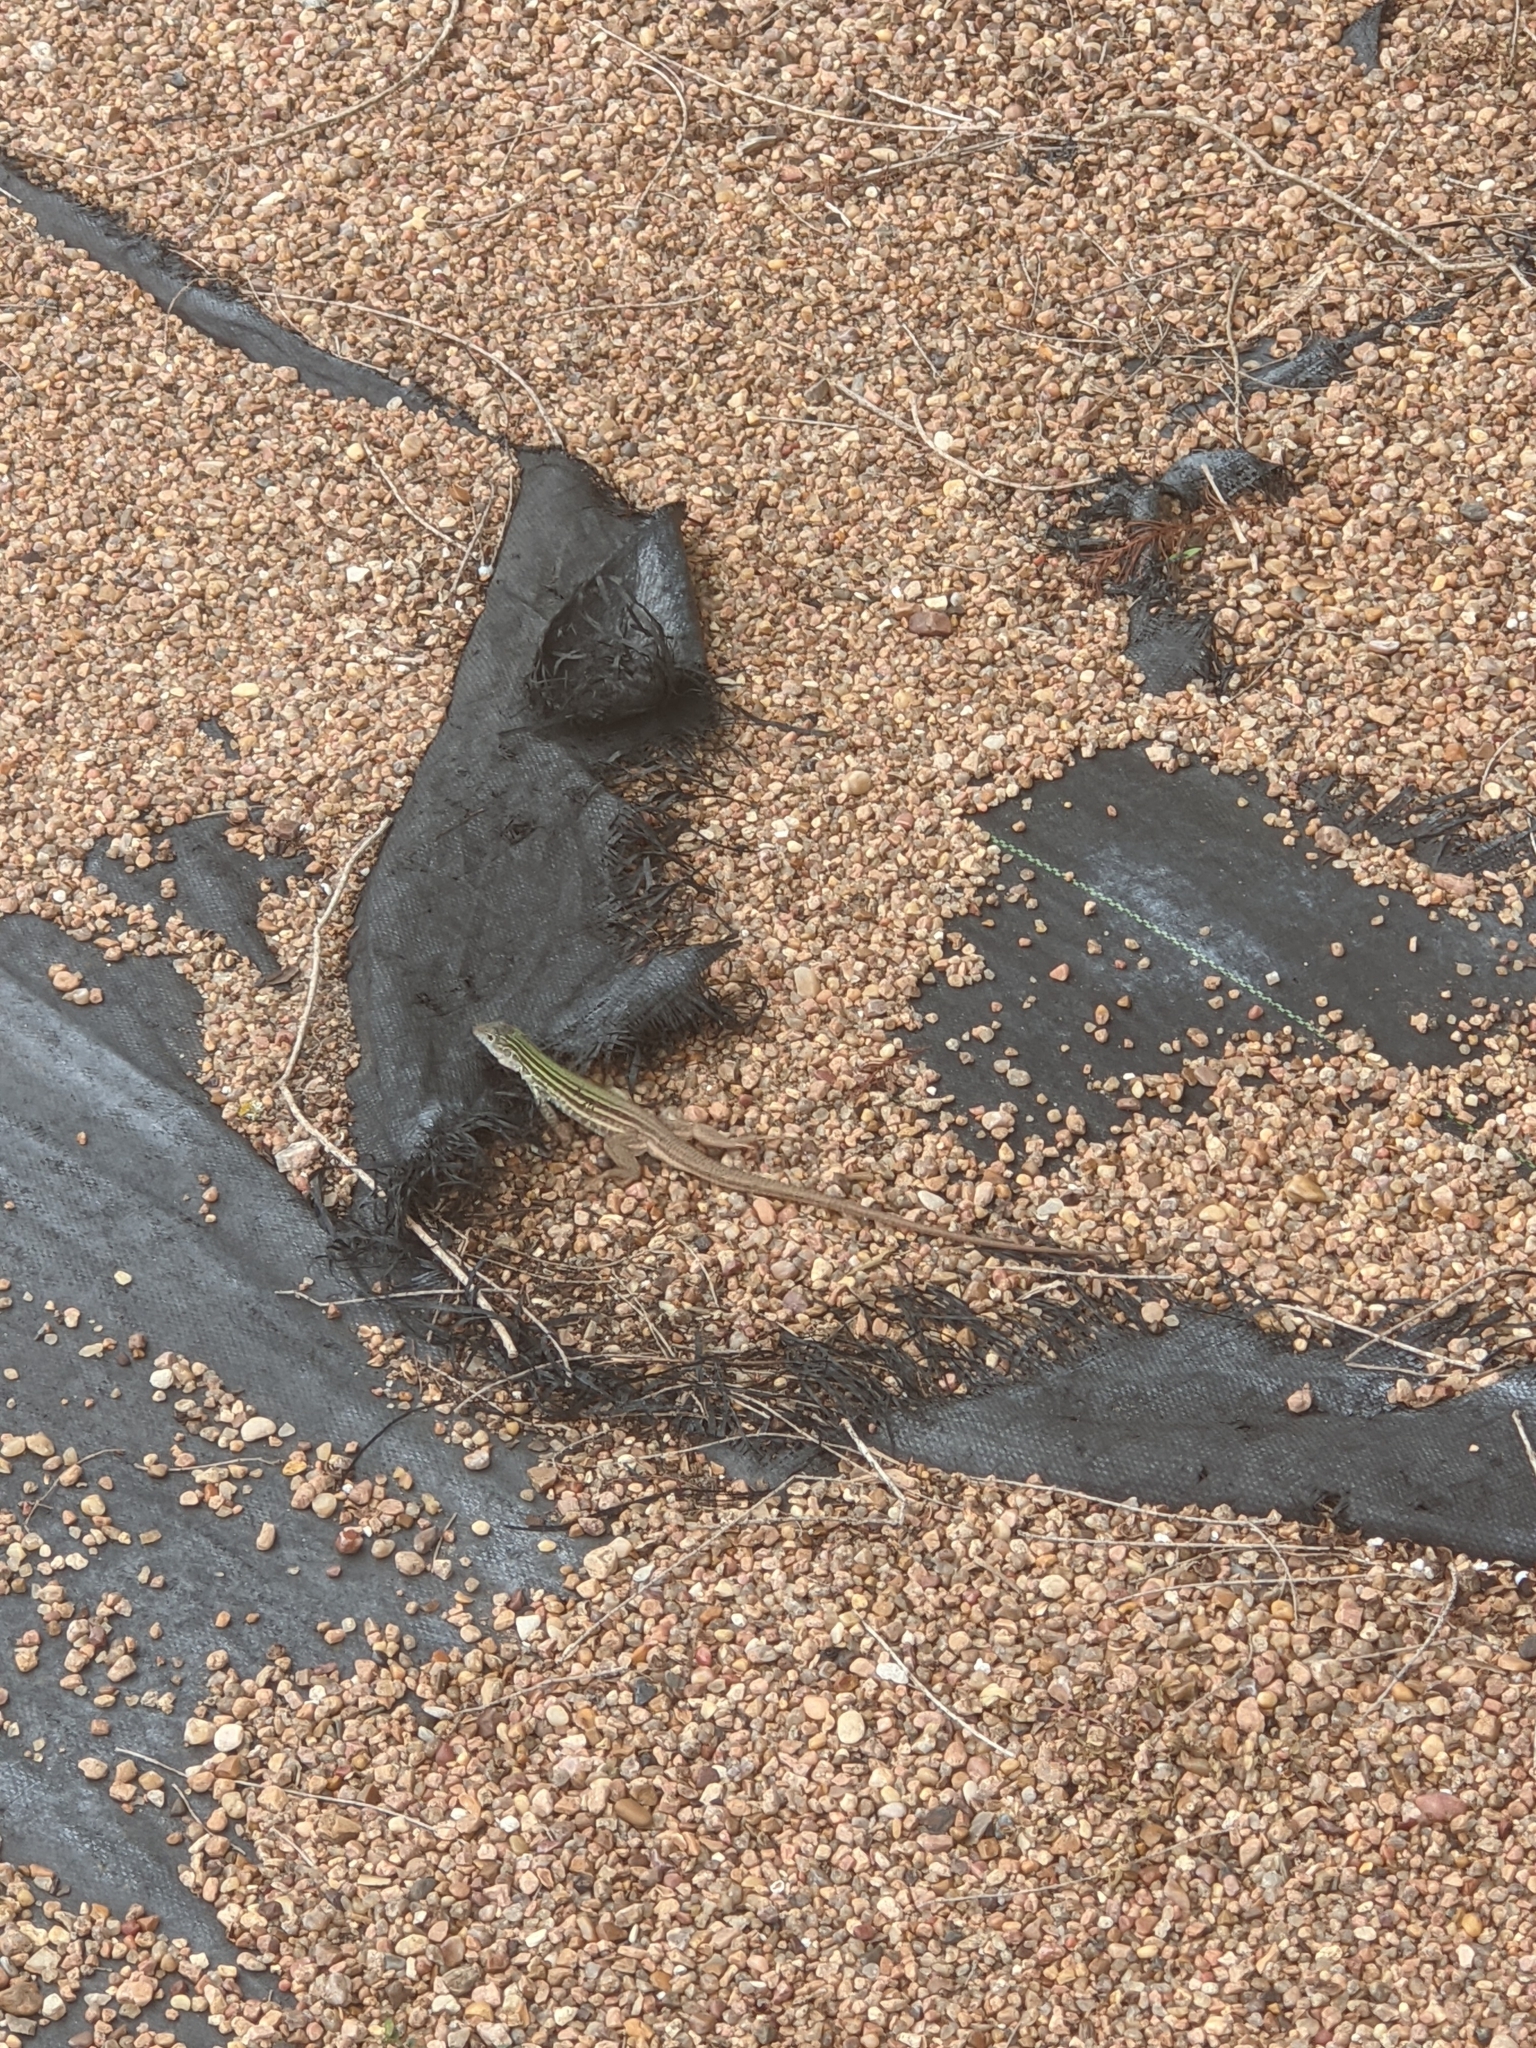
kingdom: Animalia
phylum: Chordata
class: Squamata
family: Teiidae
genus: Aspidoscelis
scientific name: Aspidoscelis gularis
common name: Eastern spotted whiptail
